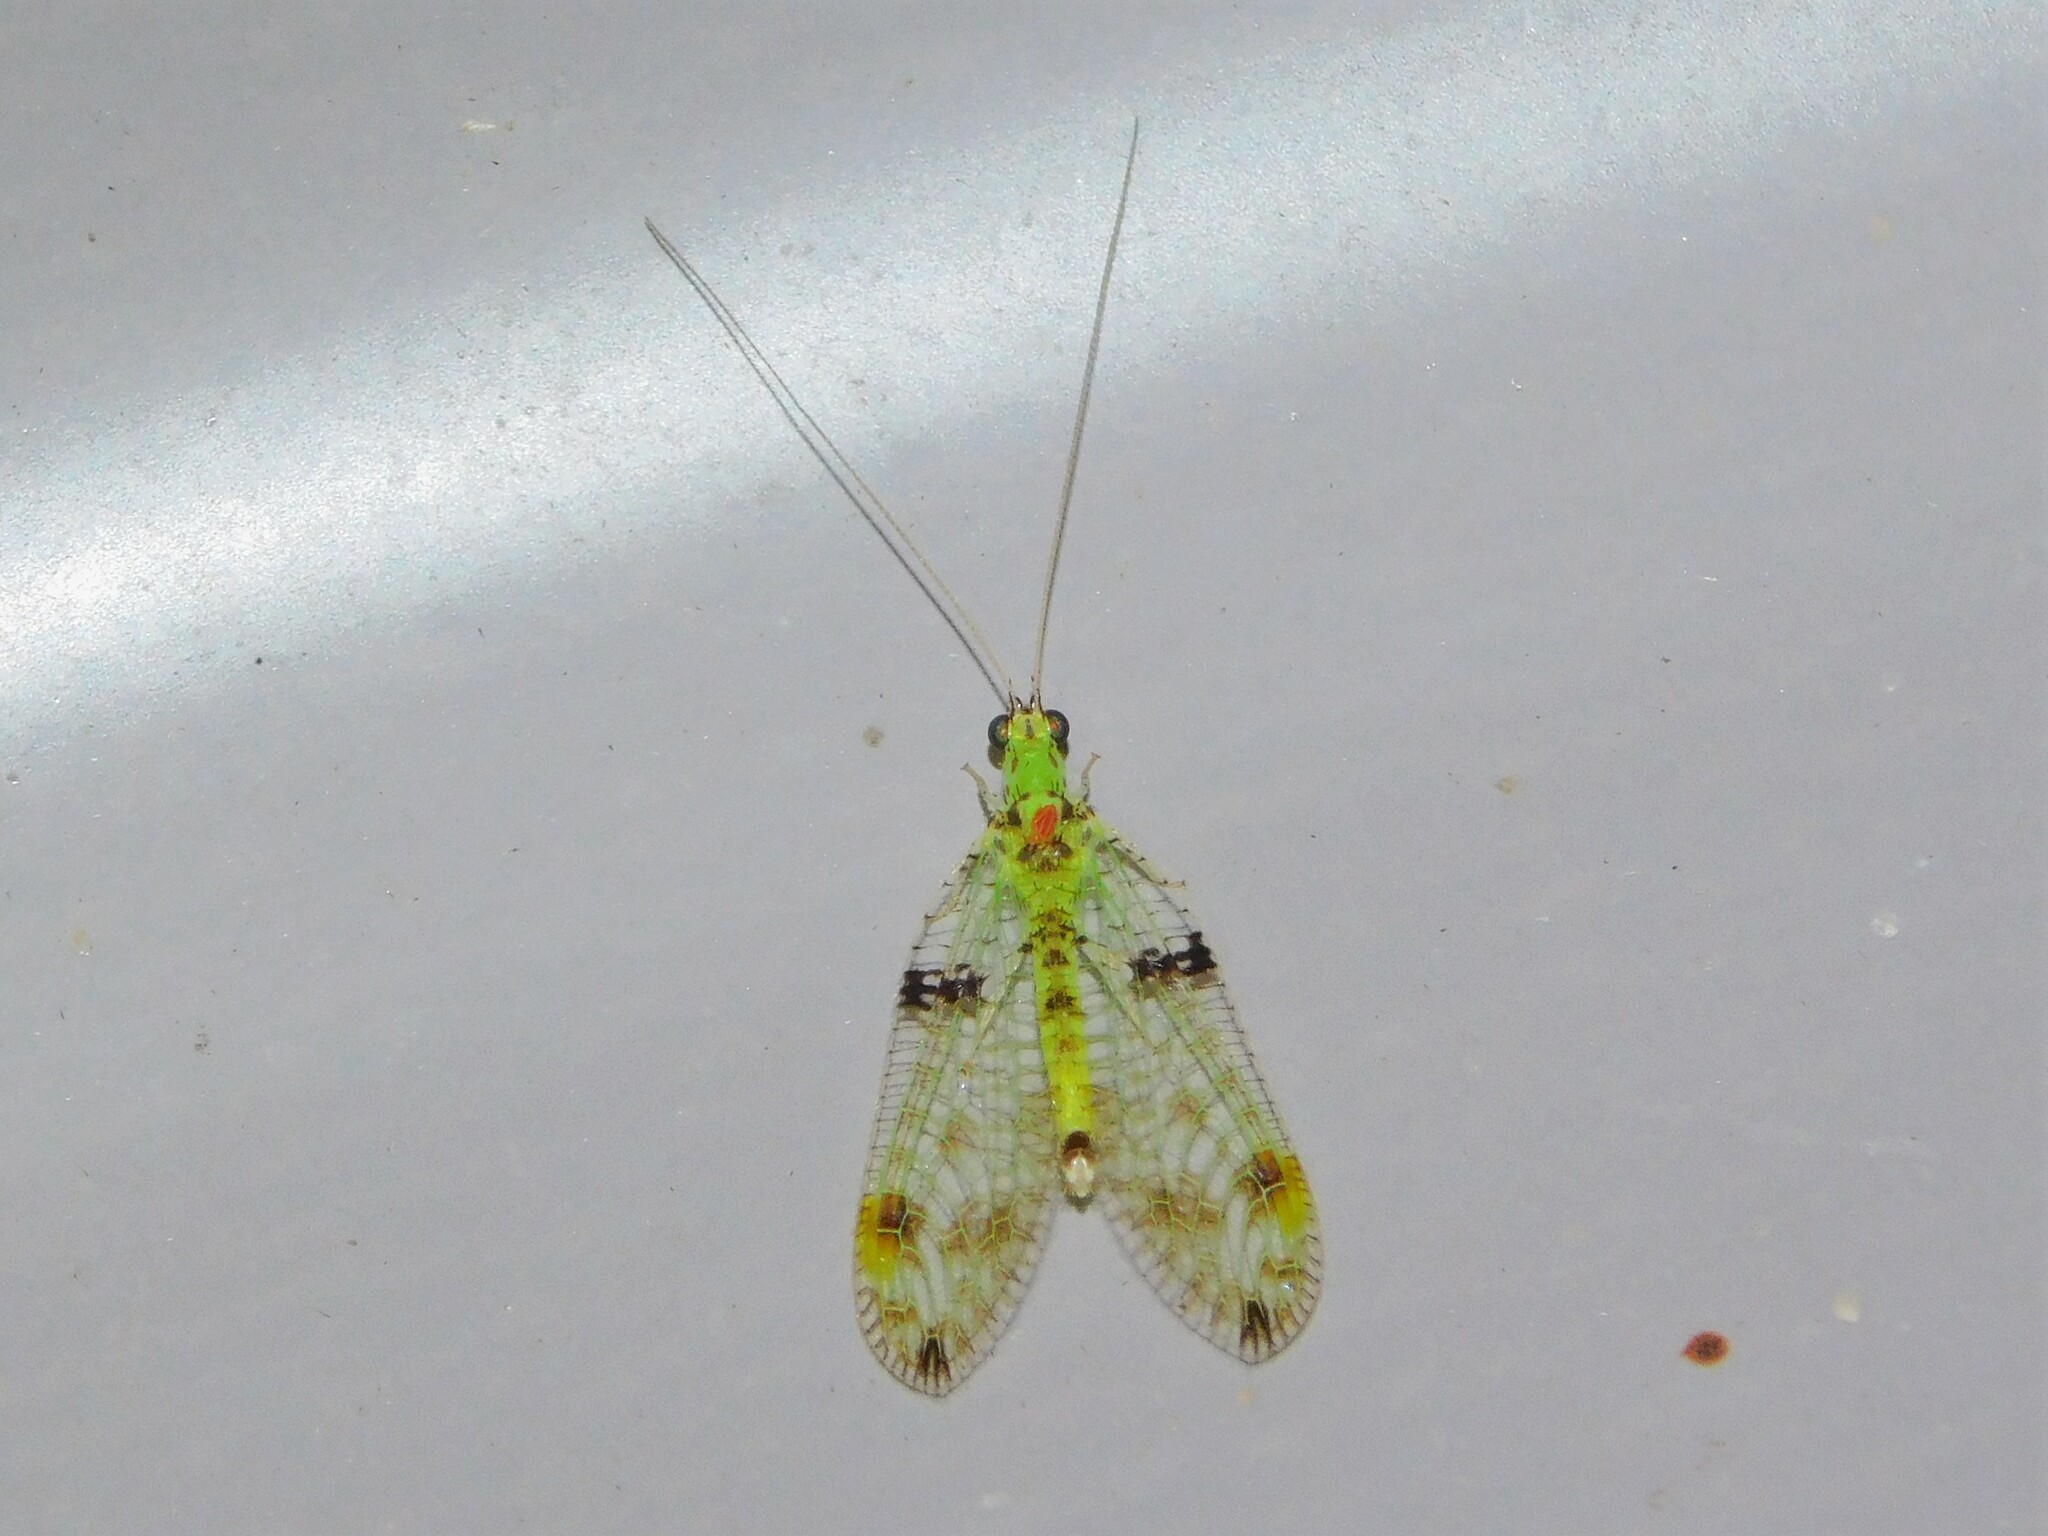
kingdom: Animalia
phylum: Arthropoda
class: Insecta
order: Neuroptera
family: Chrysopidae
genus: Glenochrysa
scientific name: Glenochrysa principissa
